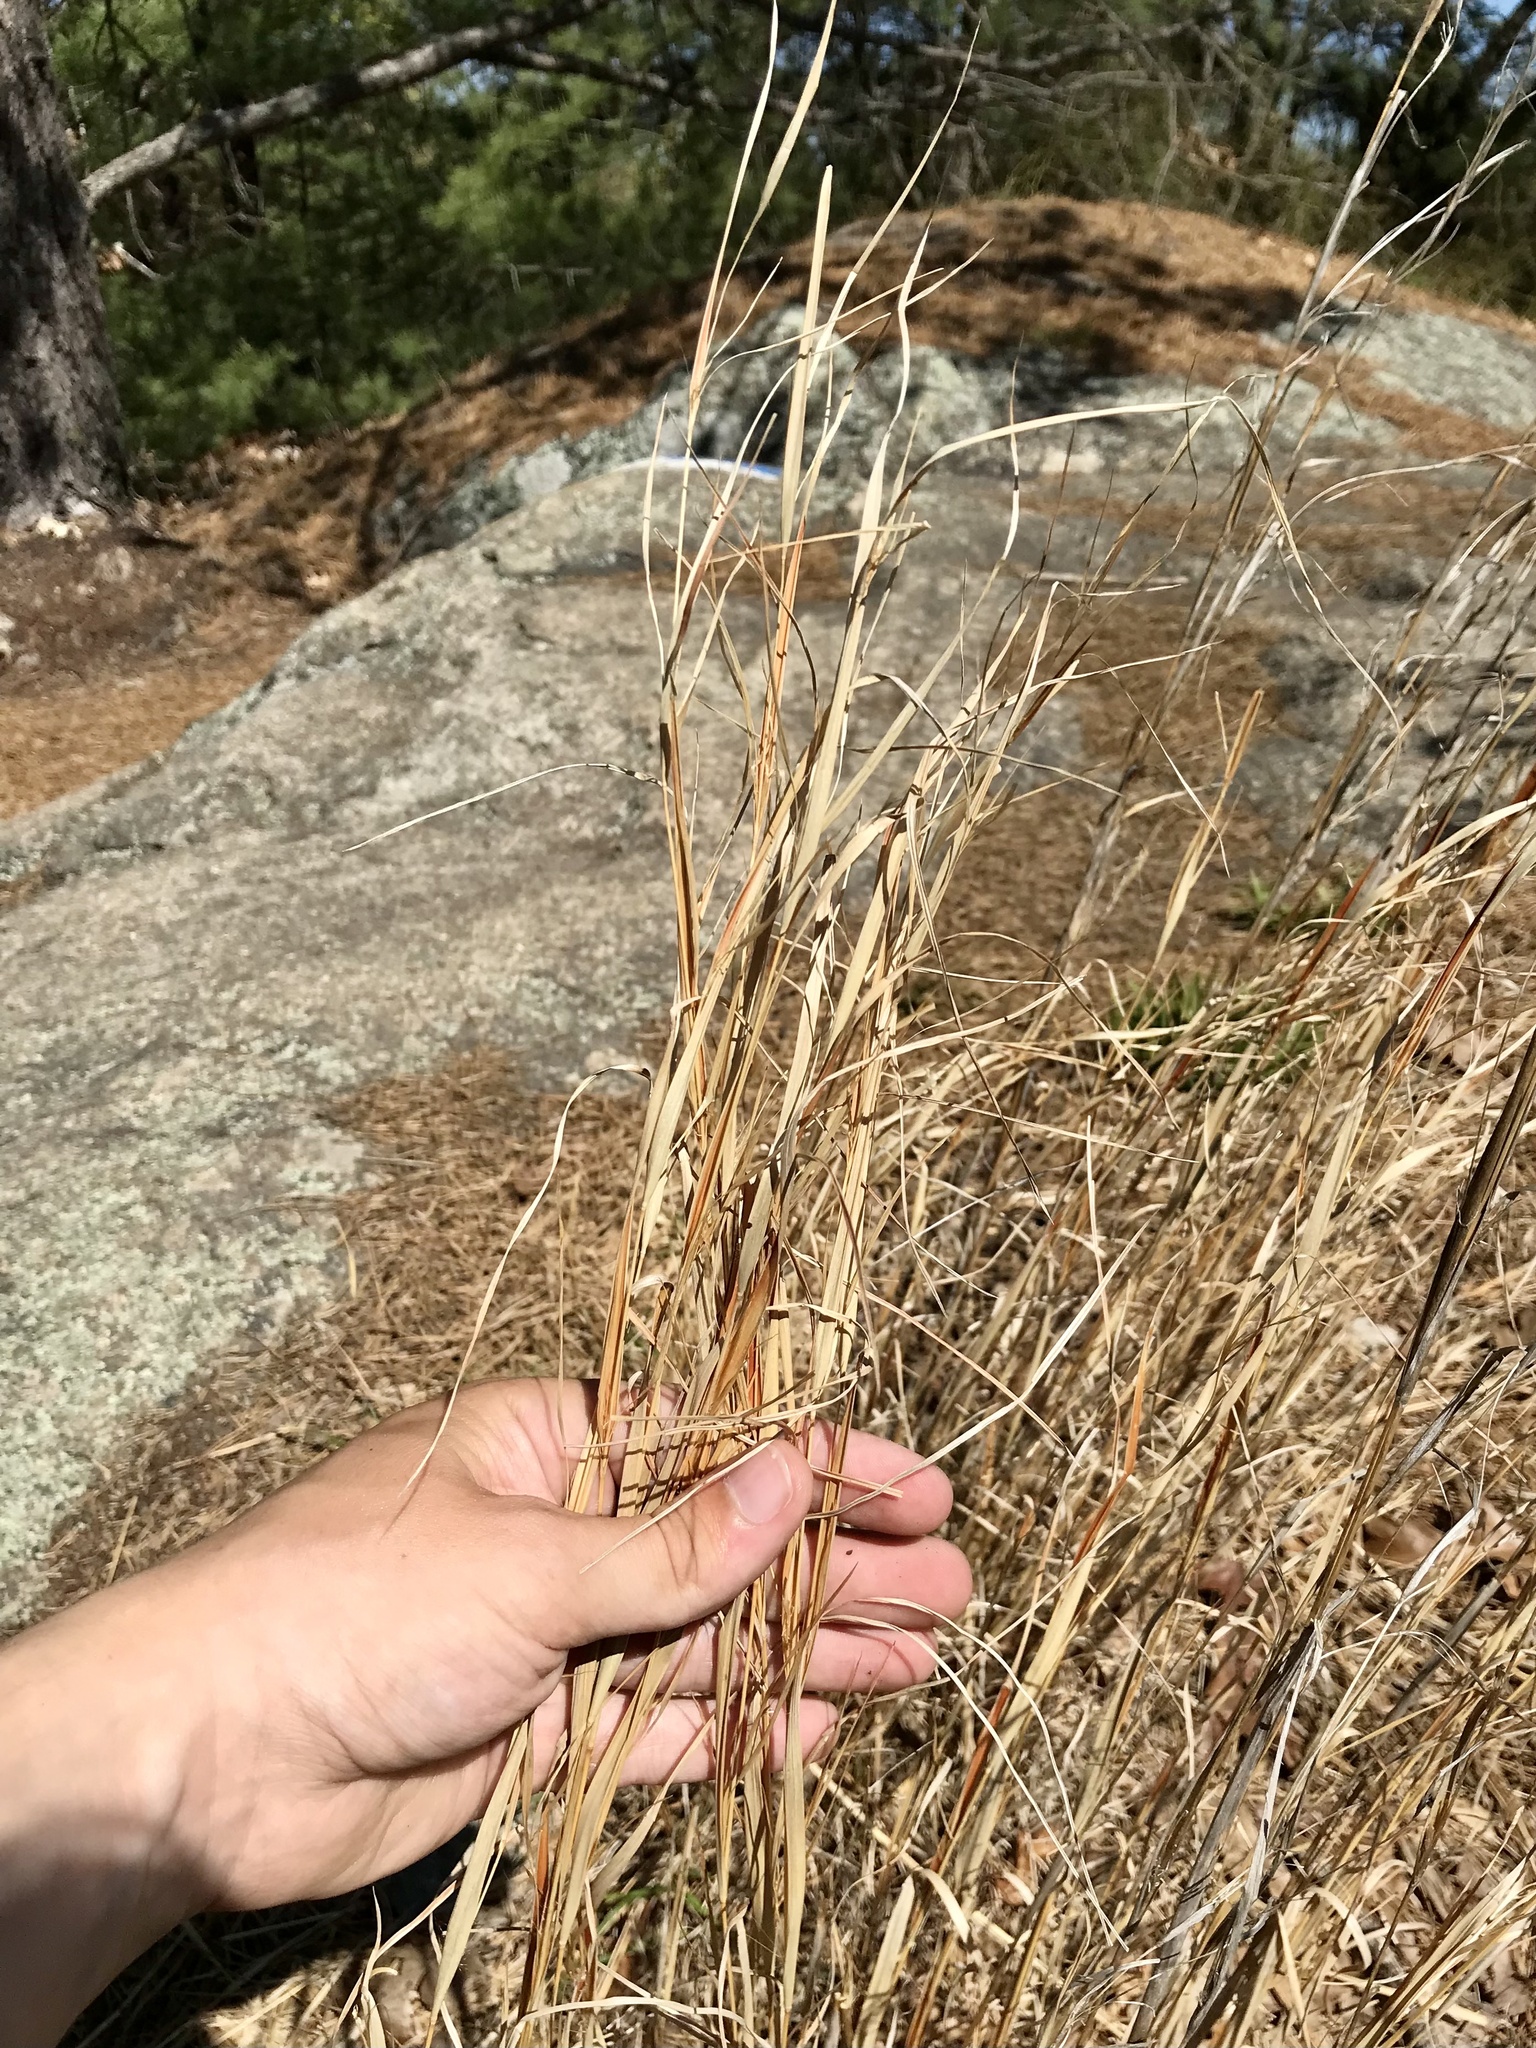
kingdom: Plantae
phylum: Tracheophyta
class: Liliopsida
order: Poales
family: Poaceae
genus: Andropogon
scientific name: Andropogon virginicus
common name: Broomsedge bluestem
